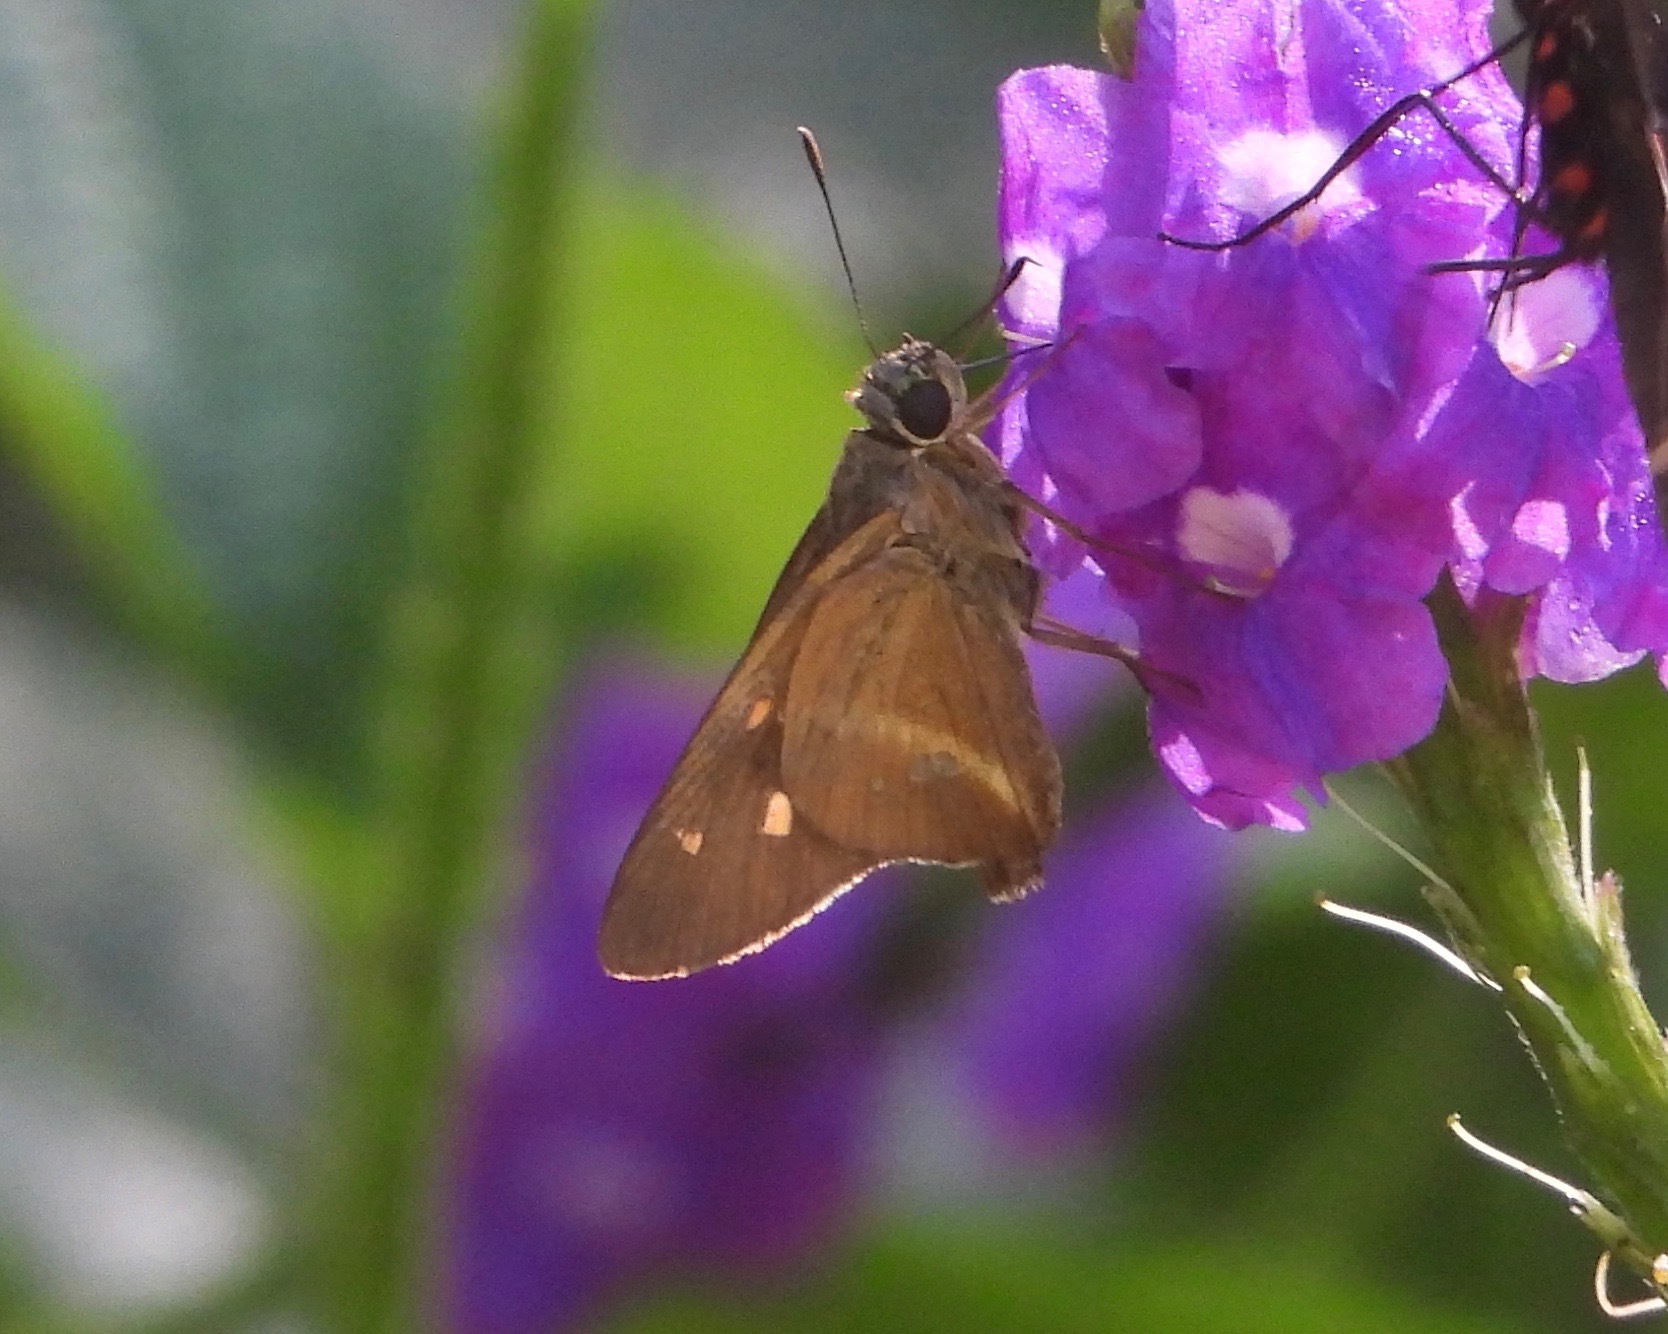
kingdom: Animalia
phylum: Arthropoda
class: Insecta
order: Lepidoptera
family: Hesperiidae
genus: Niconiades
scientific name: Niconiades nikko
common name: Nikko skipper
